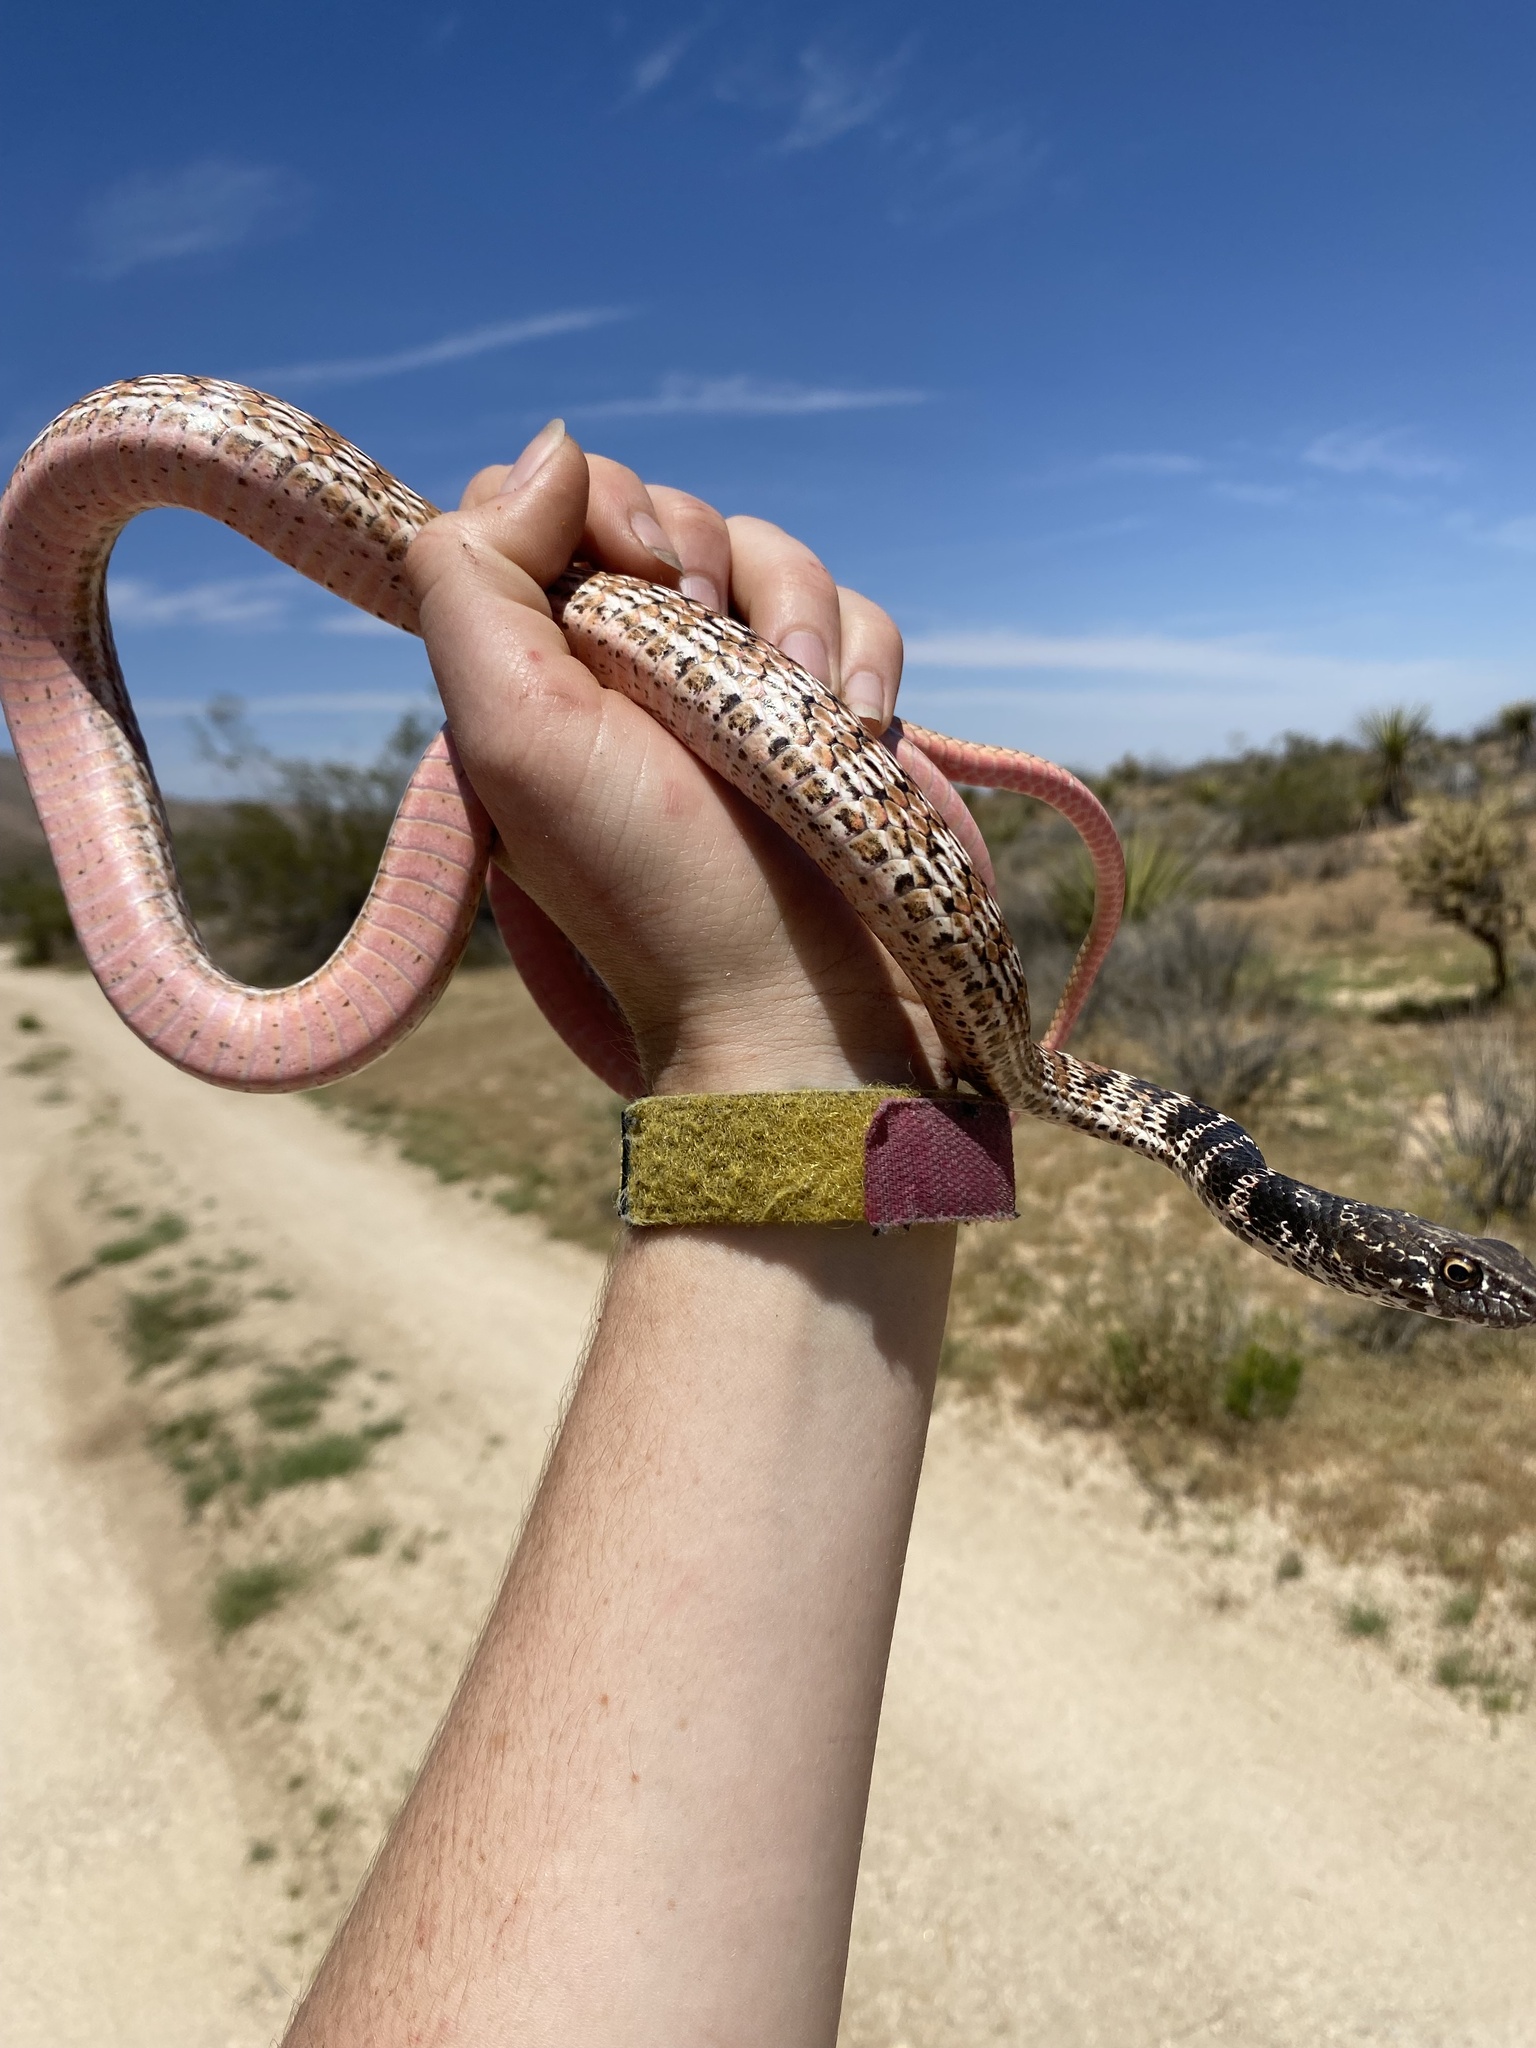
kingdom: Animalia
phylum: Chordata
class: Squamata
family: Colubridae
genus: Masticophis
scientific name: Masticophis flagellum
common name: Coachwhip
